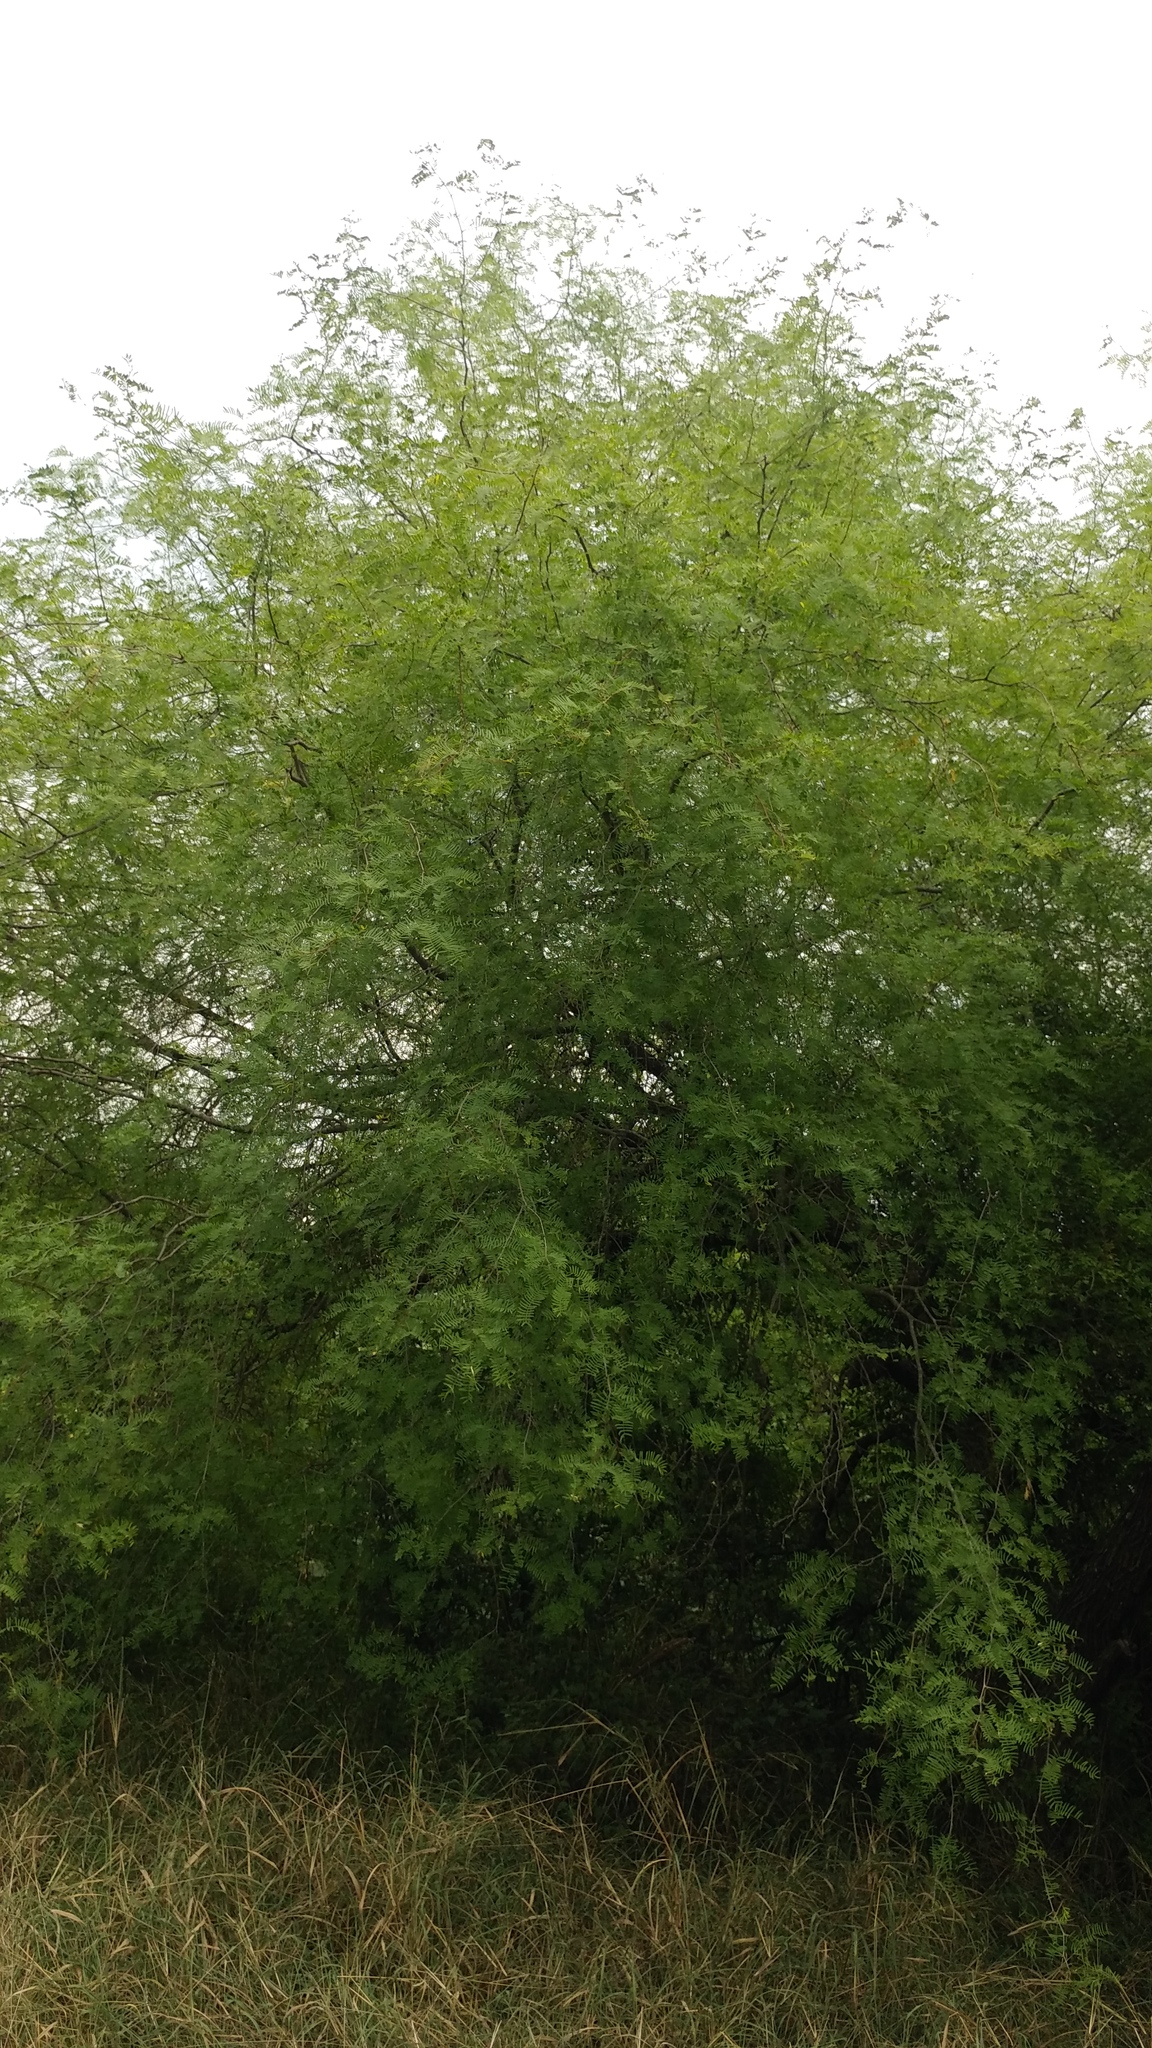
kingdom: Plantae
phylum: Tracheophyta
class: Magnoliopsida
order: Fabales
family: Fabaceae
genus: Prosopis
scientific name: Prosopis glandulosa
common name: Honey mesquite
